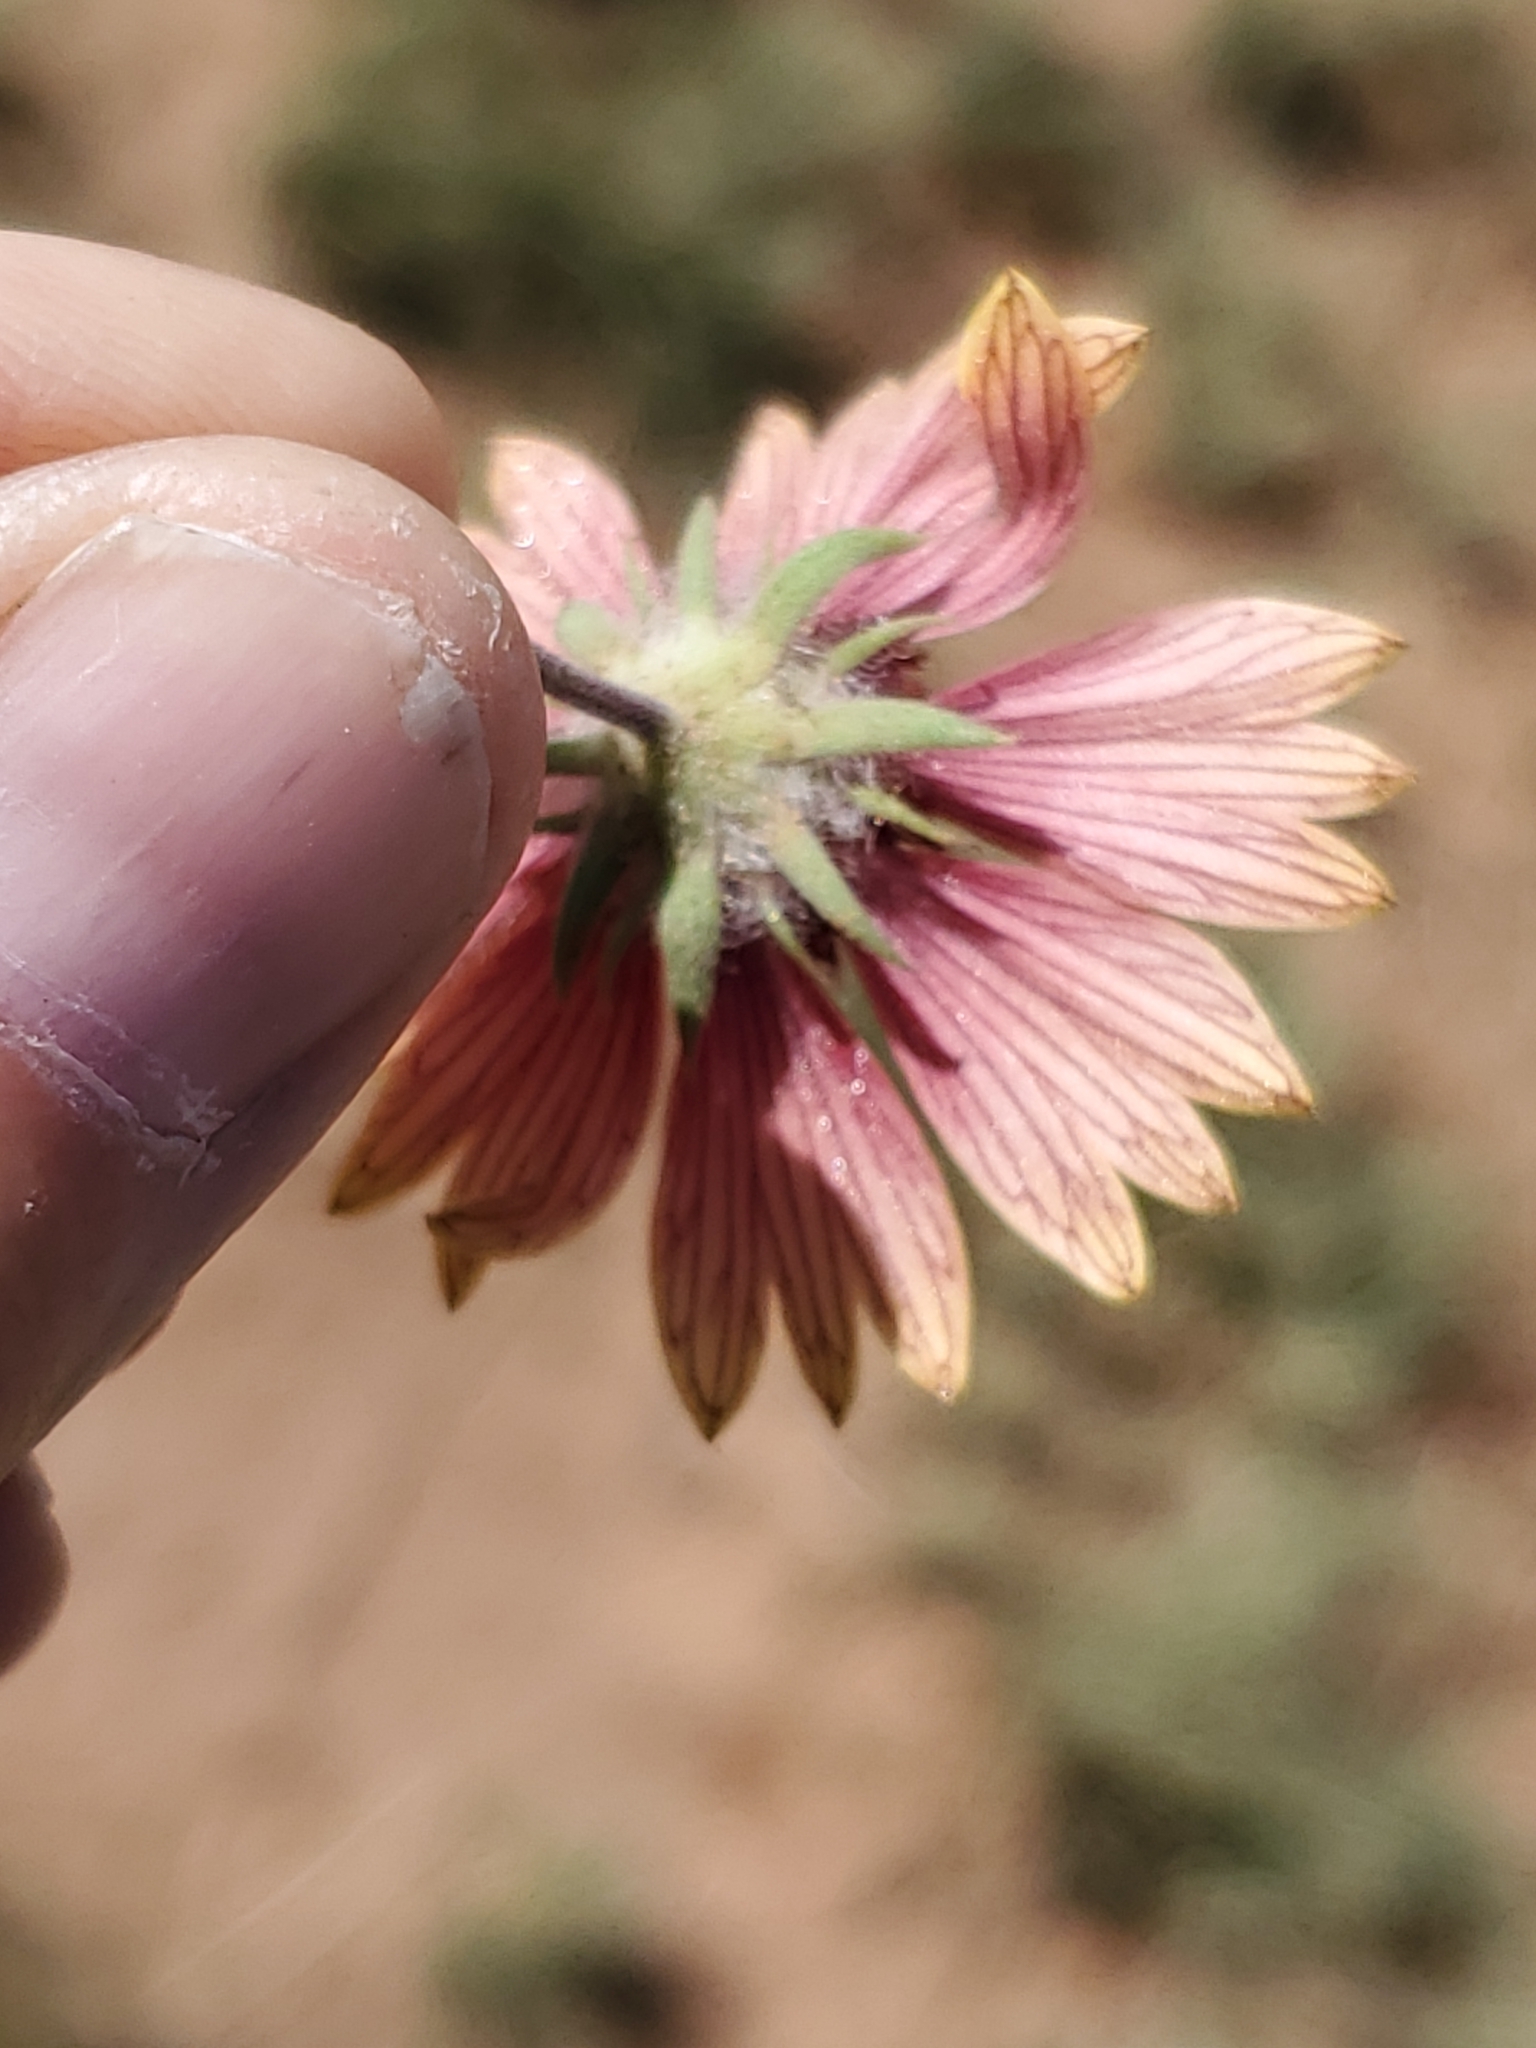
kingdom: Plantae
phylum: Tracheophyta
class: Magnoliopsida
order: Asterales
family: Asteraceae
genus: Gaillardia
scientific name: Gaillardia pulchella
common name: Firewheel
